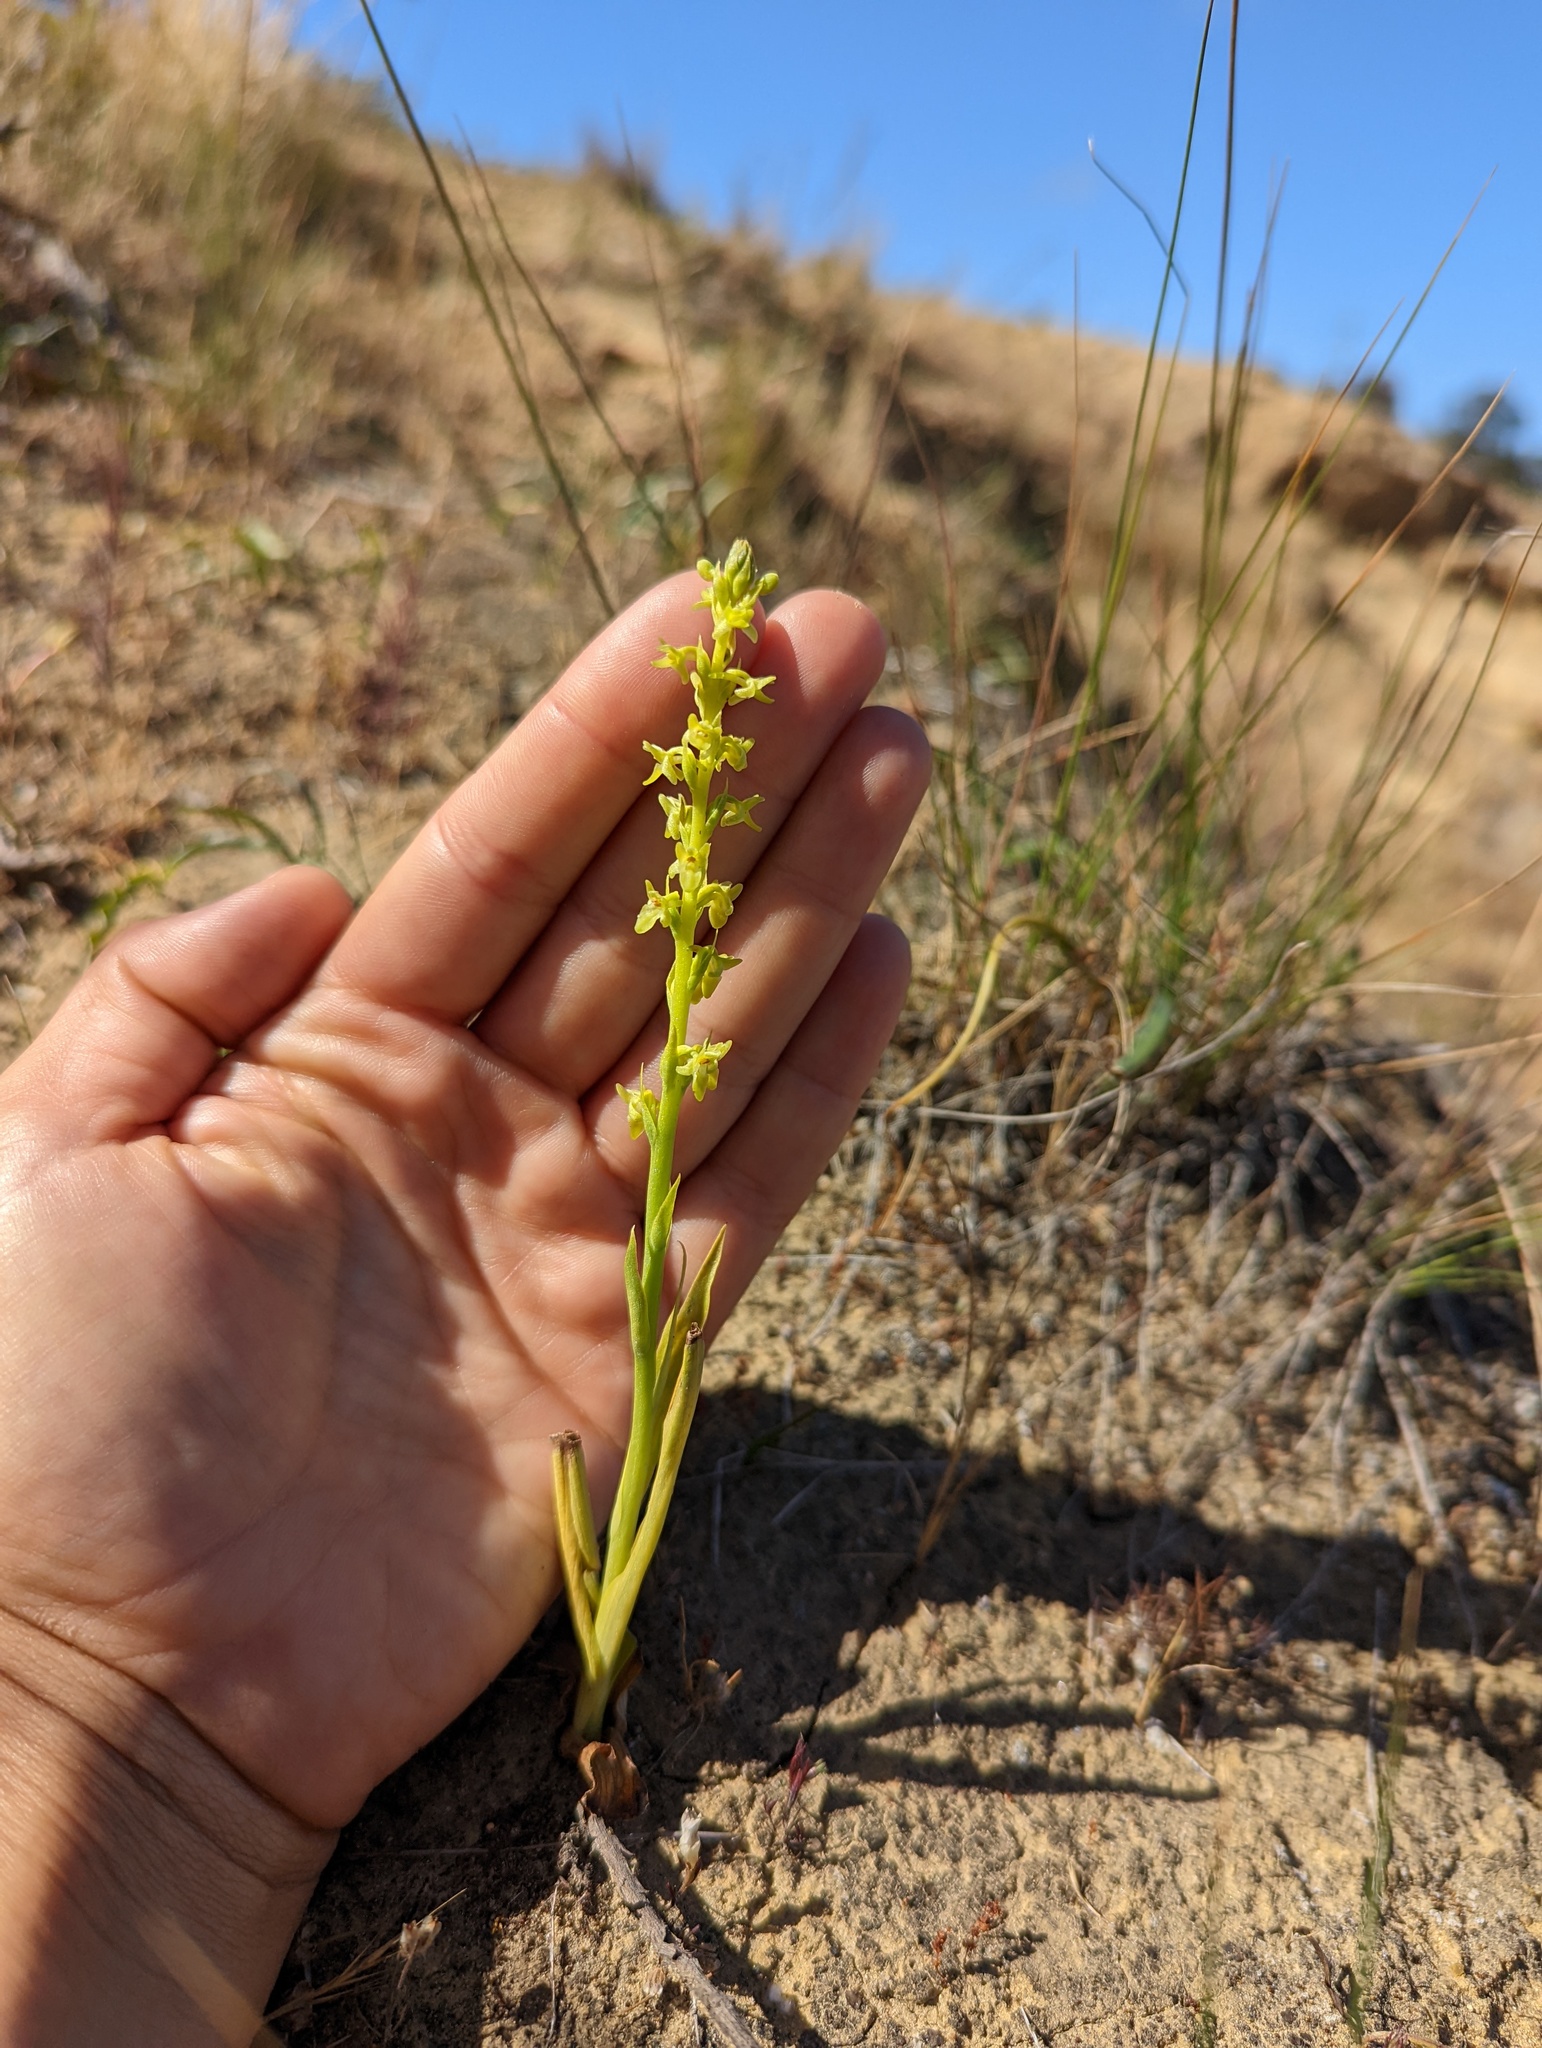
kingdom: Plantae
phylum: Tracheophyta
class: Liliopsida
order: Asparagales
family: Orchidaceae
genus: Platanthera
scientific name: Platanthera cooperi
